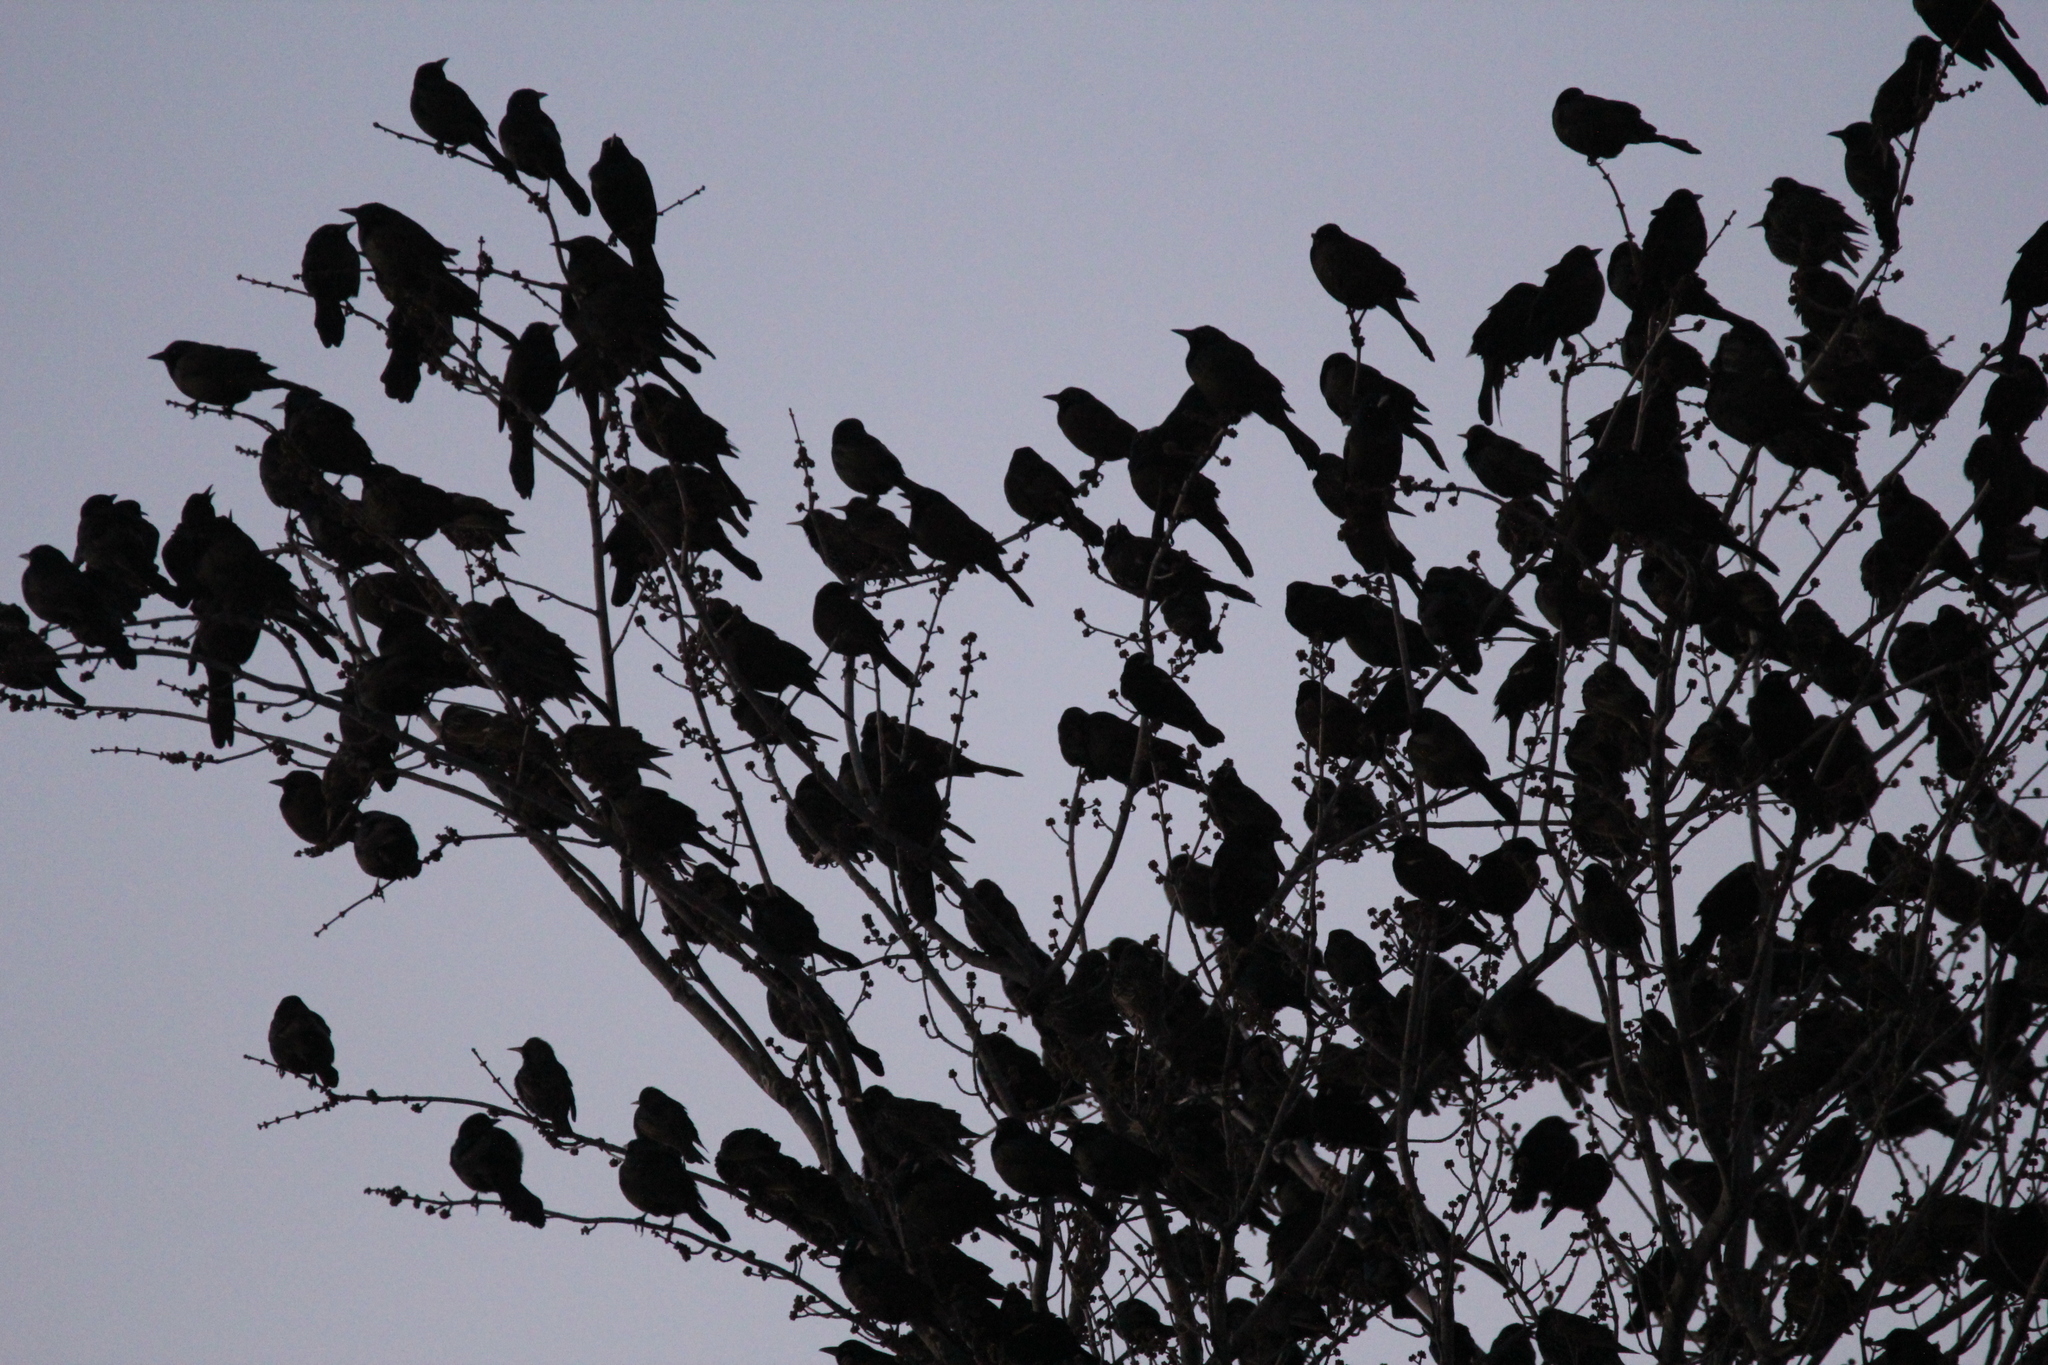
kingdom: Animalia
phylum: Chordata
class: Aves
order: Passeriformes
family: Icteridae
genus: Quiscalus
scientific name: Quiscalus quiscula
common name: Common grackle
